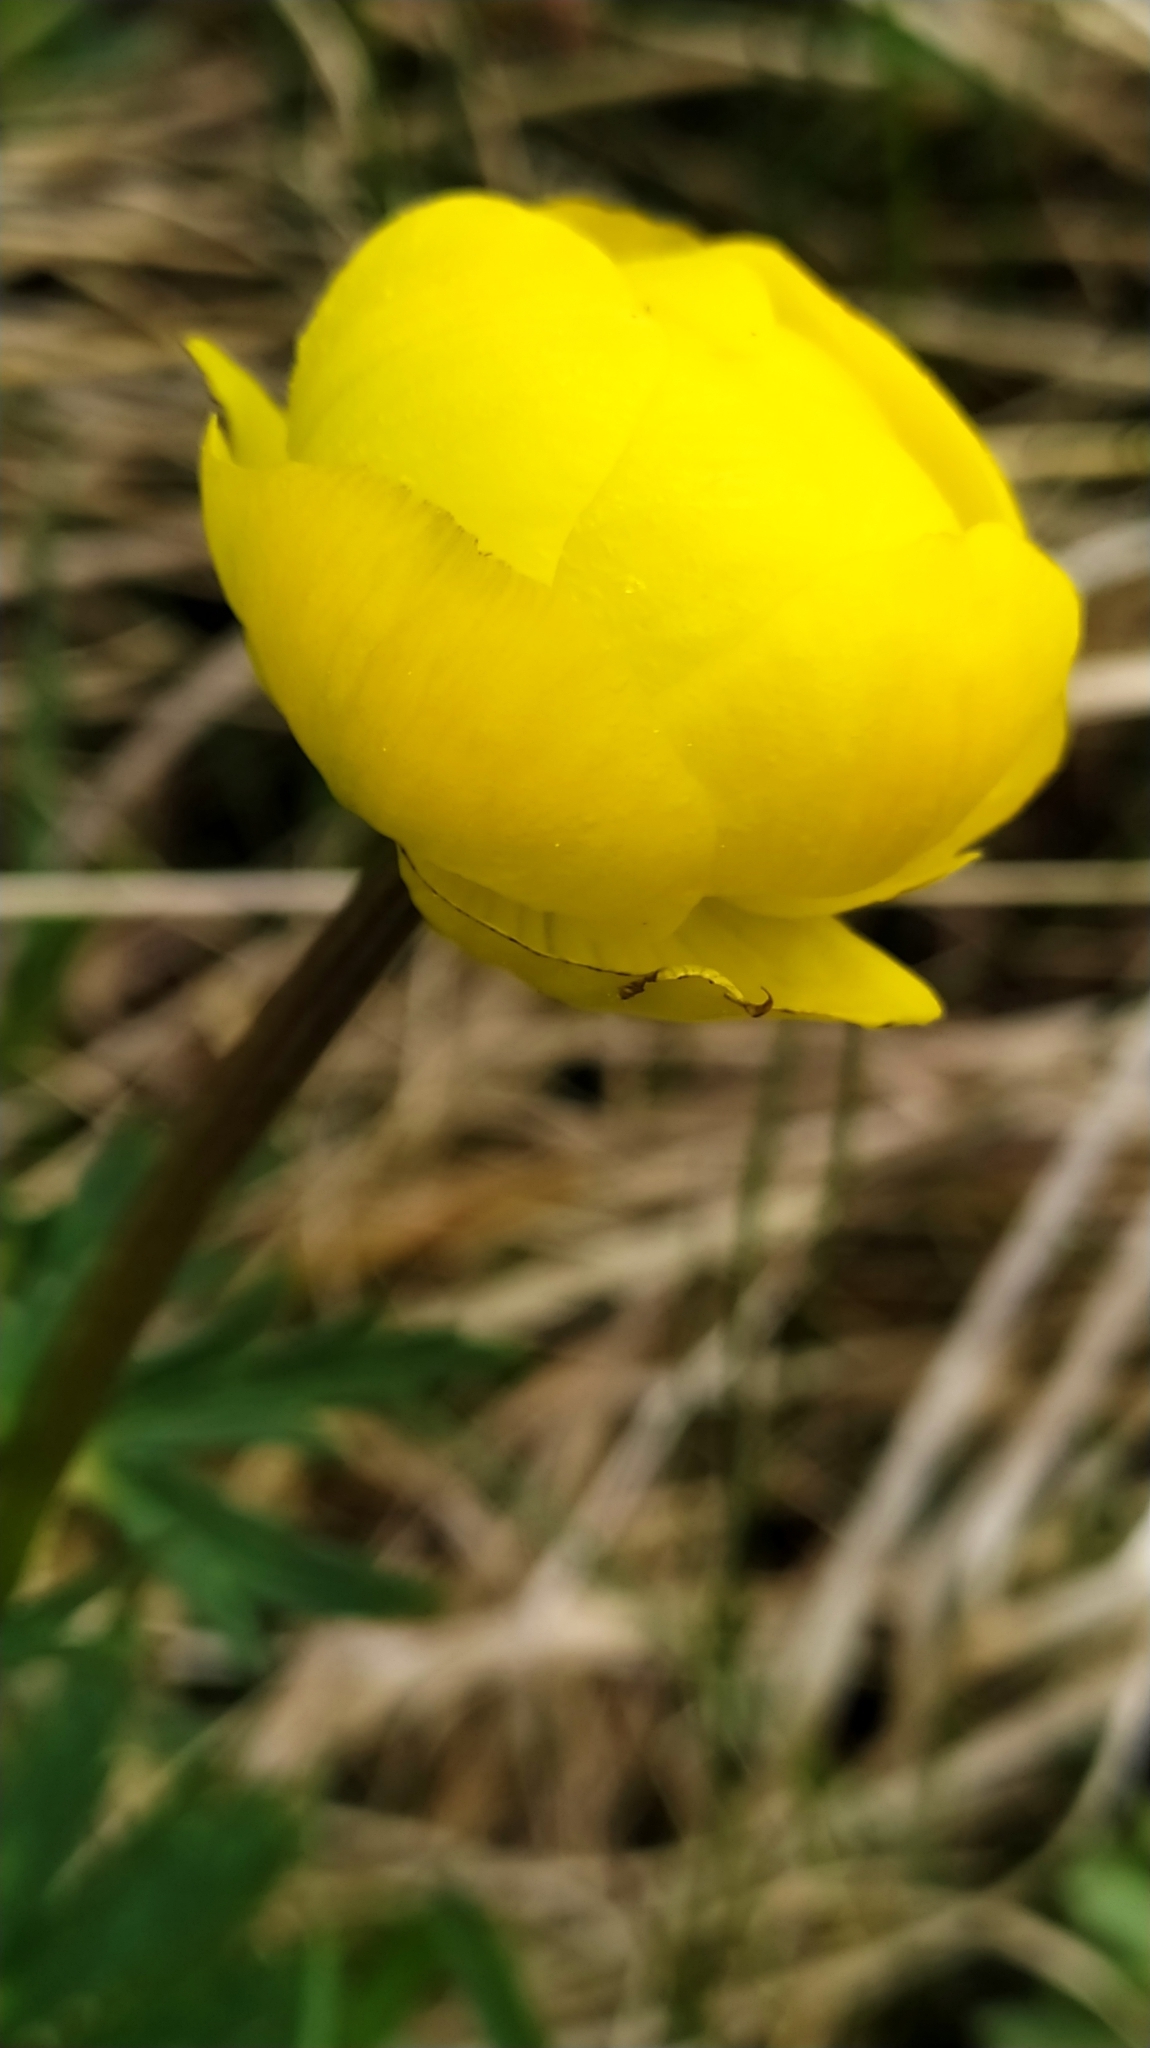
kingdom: Plantae
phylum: Tracheophyta
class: Magnoliopsida
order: Ranunculales
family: Ranunculaceae
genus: Trollius
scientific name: Trollius europaeus
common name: European globeflower
